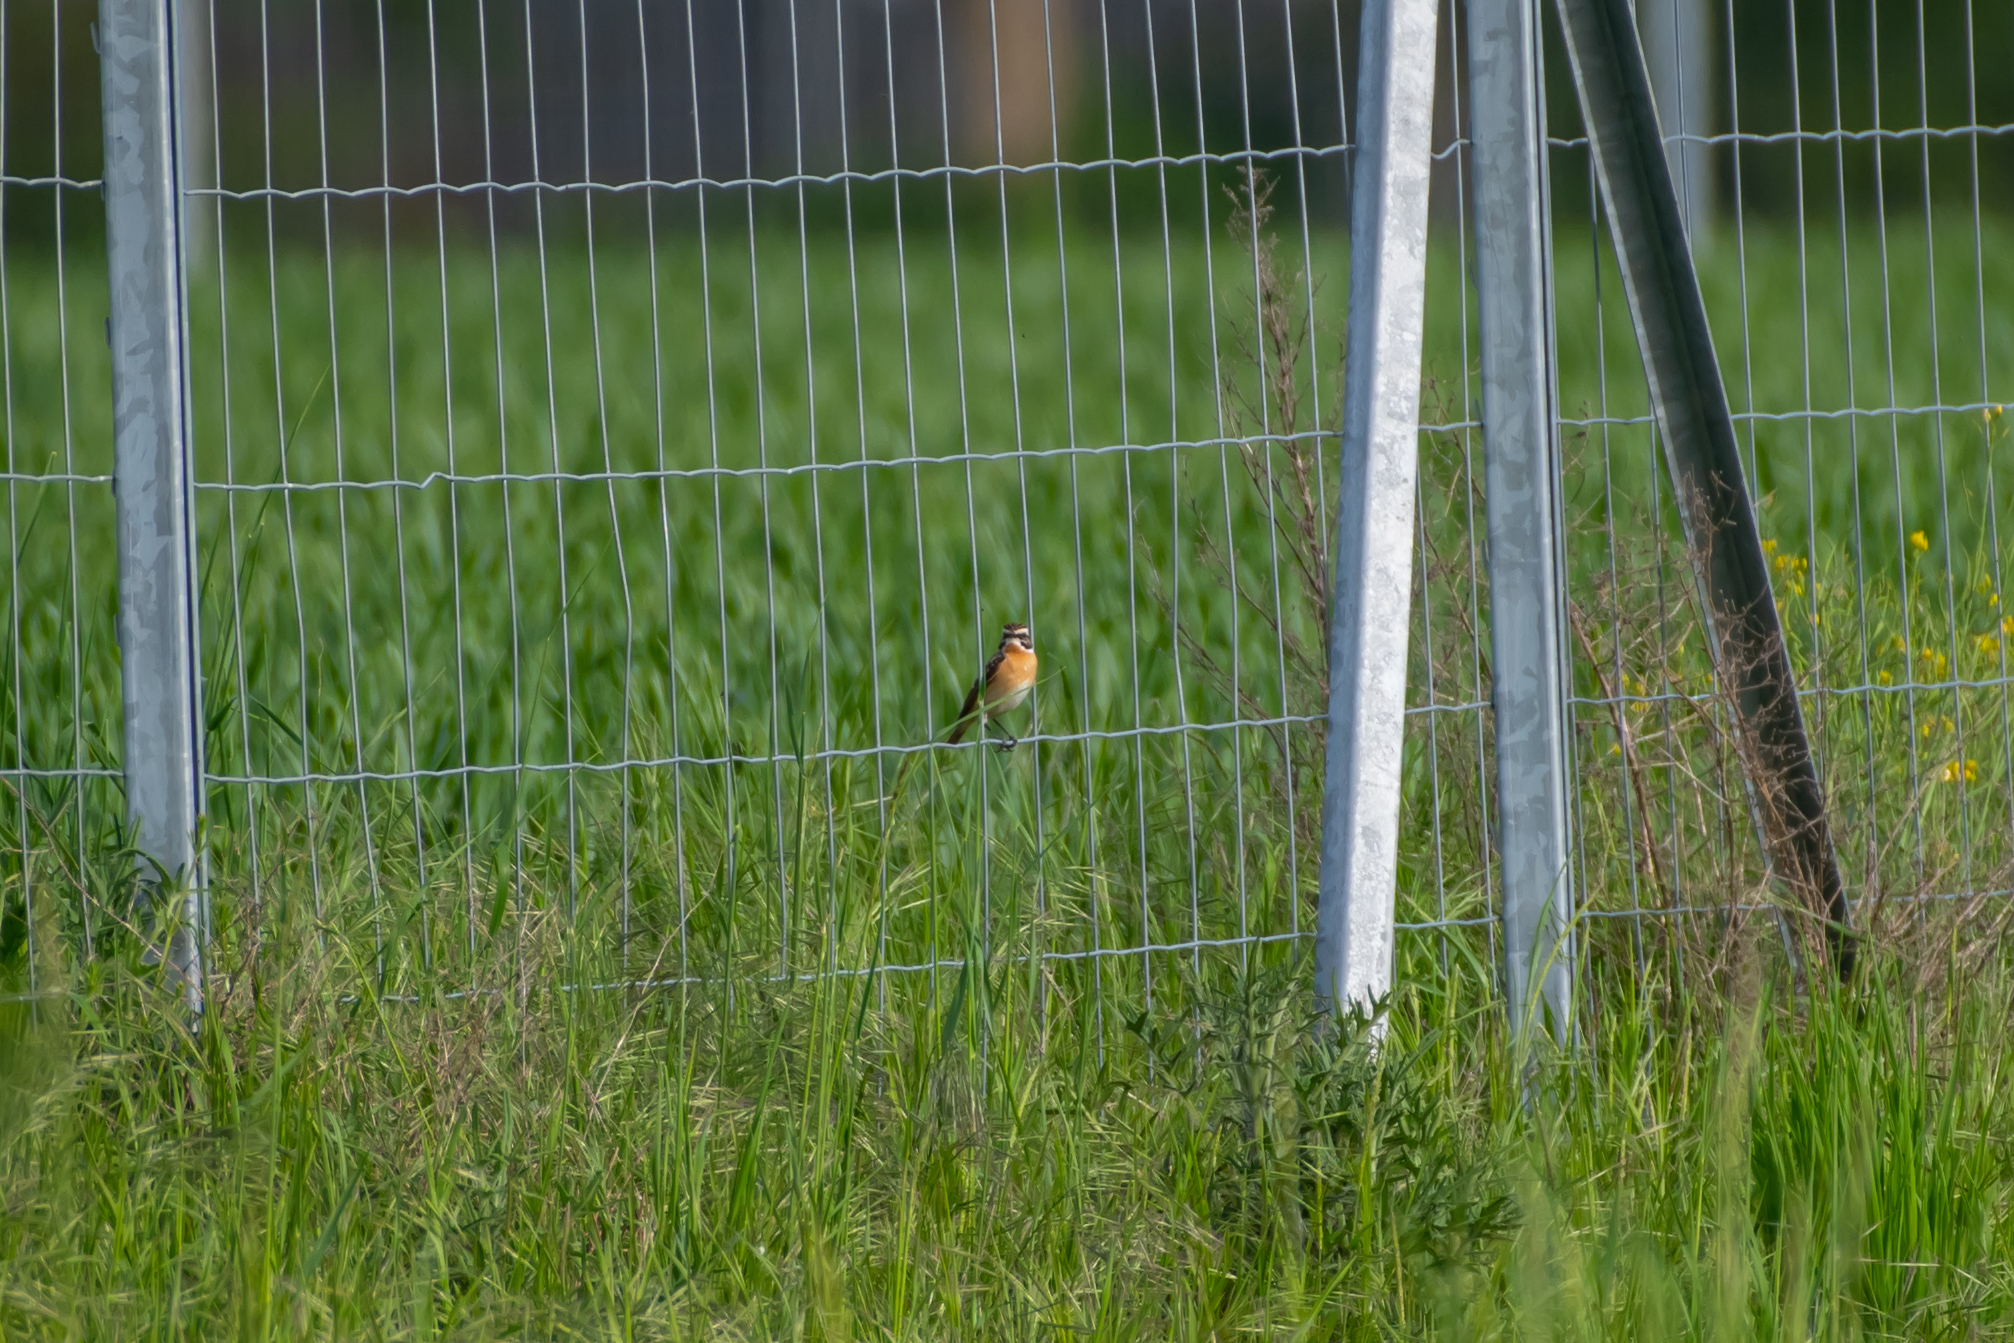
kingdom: Animalia
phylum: Chordata
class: Aves
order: Passeriformes
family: Muscicapidae
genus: Saxicola
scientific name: Saxicola rubetra
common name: Whinchat
